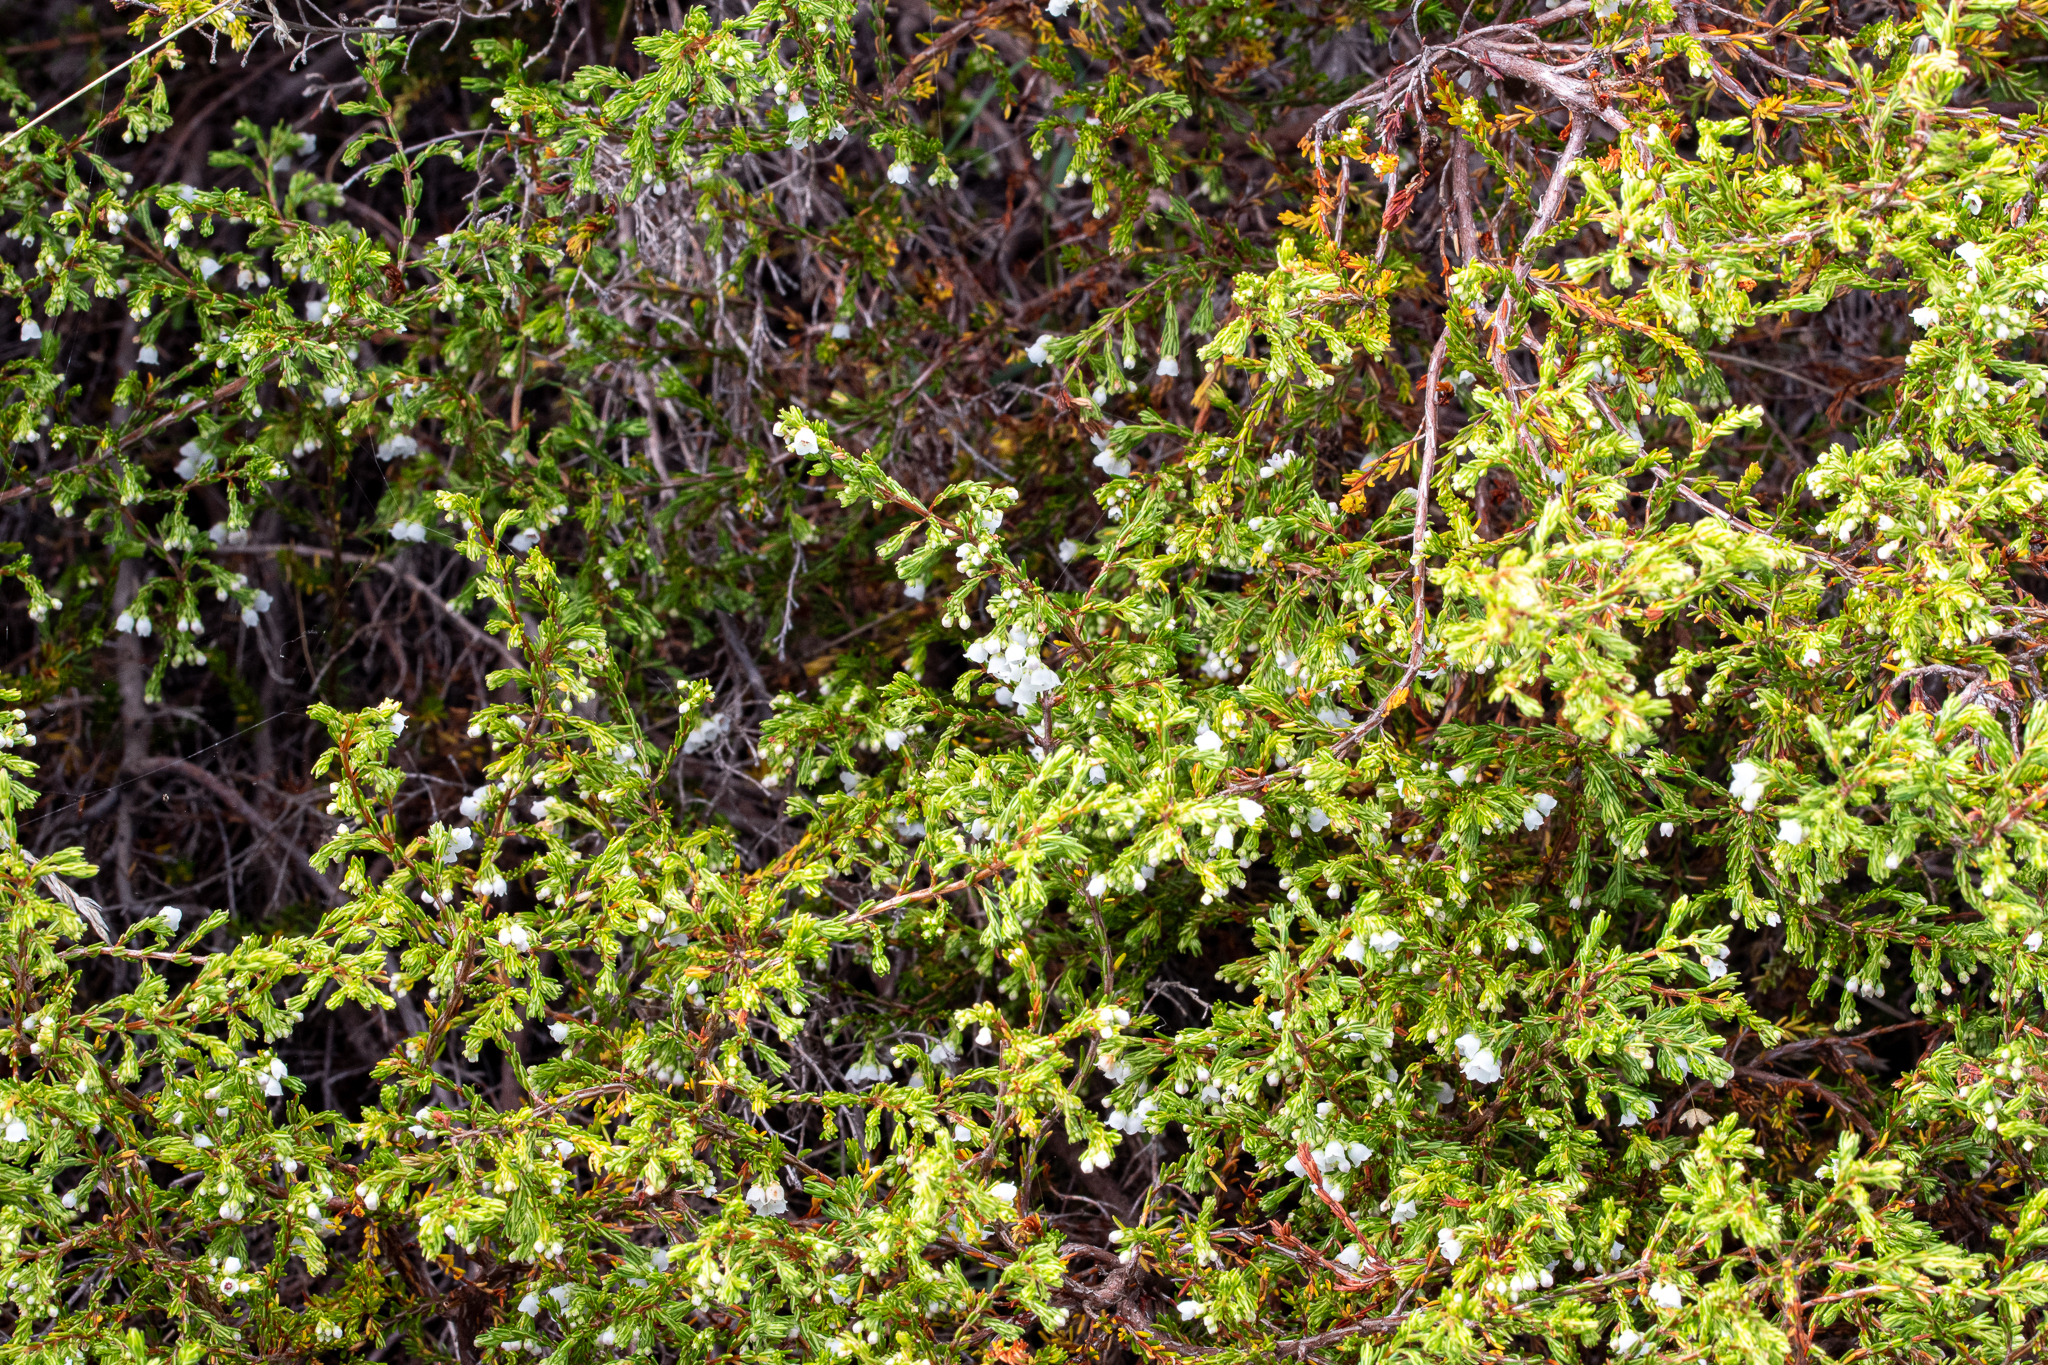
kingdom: Plantae
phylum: Tracheophyta
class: Magnoliopsida
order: Ericales
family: Ericaceae
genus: Erica
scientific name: Erica subdivaricata
